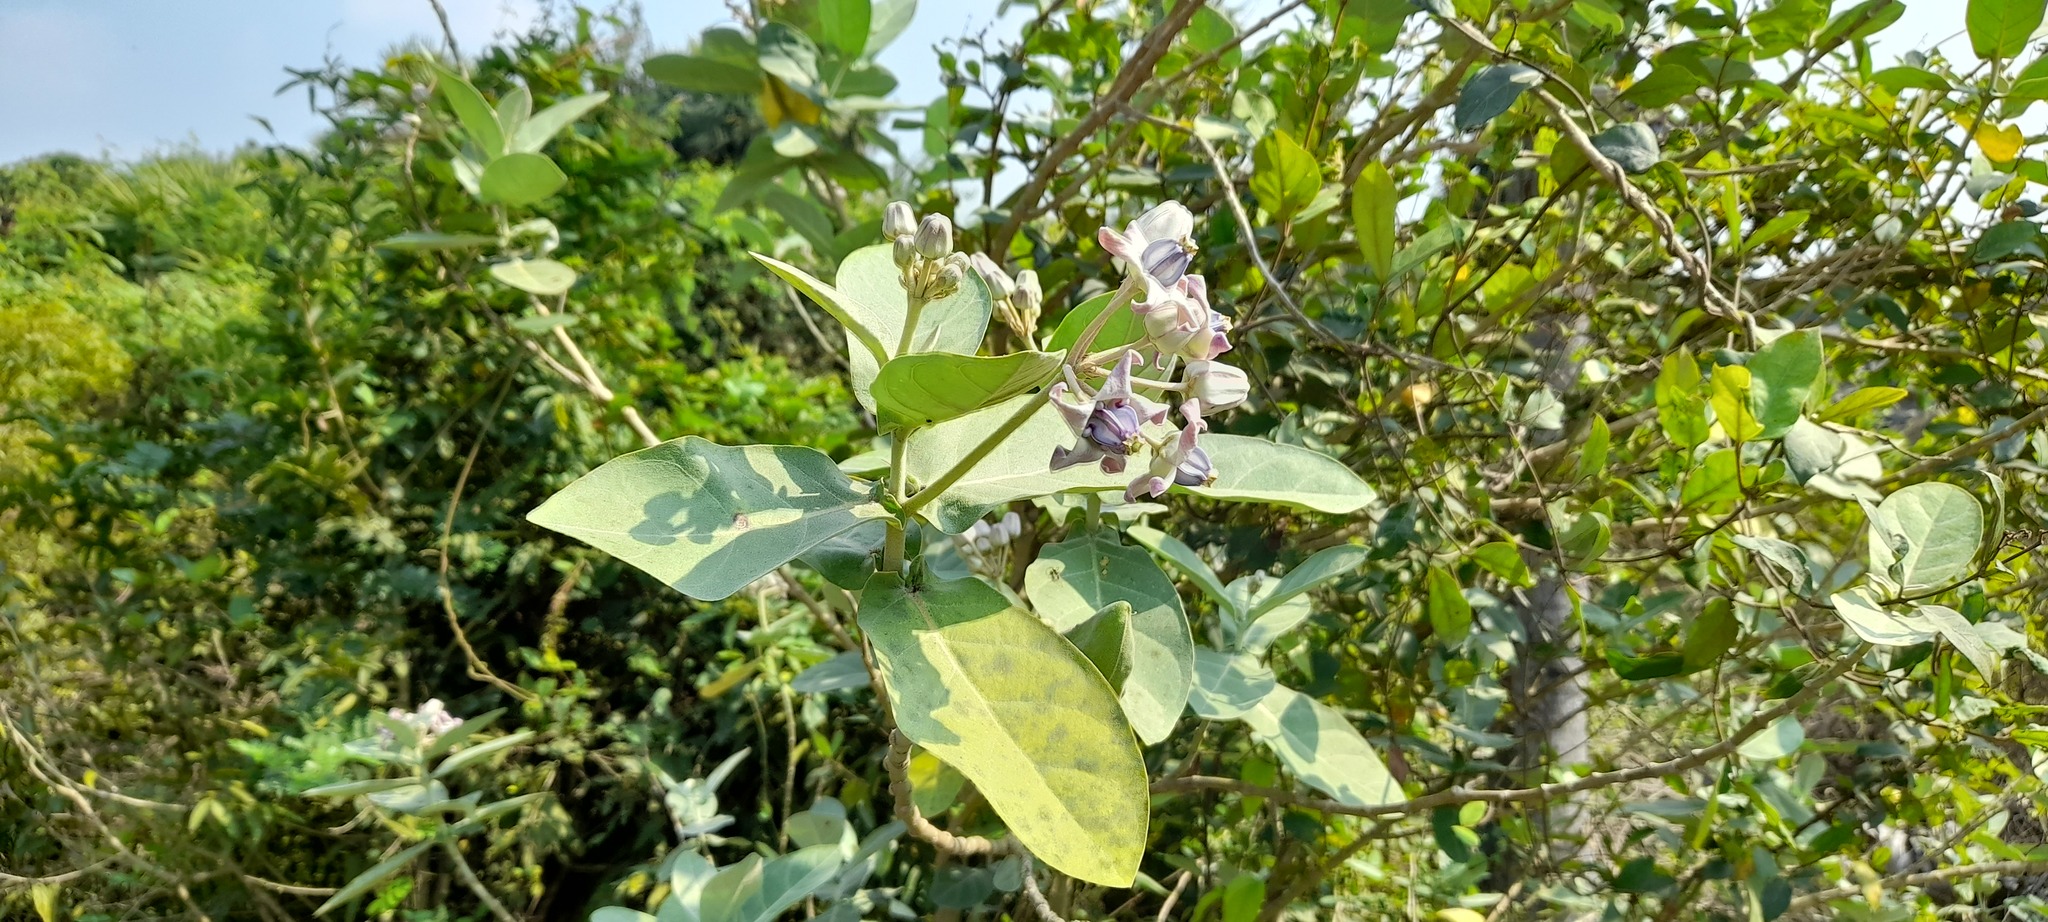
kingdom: Plantae
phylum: Tracheophyta
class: Magnoliopsida
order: Gentianales
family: Apocynaceae
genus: Calotropis
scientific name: Calotropis gigantea
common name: Crown flower
